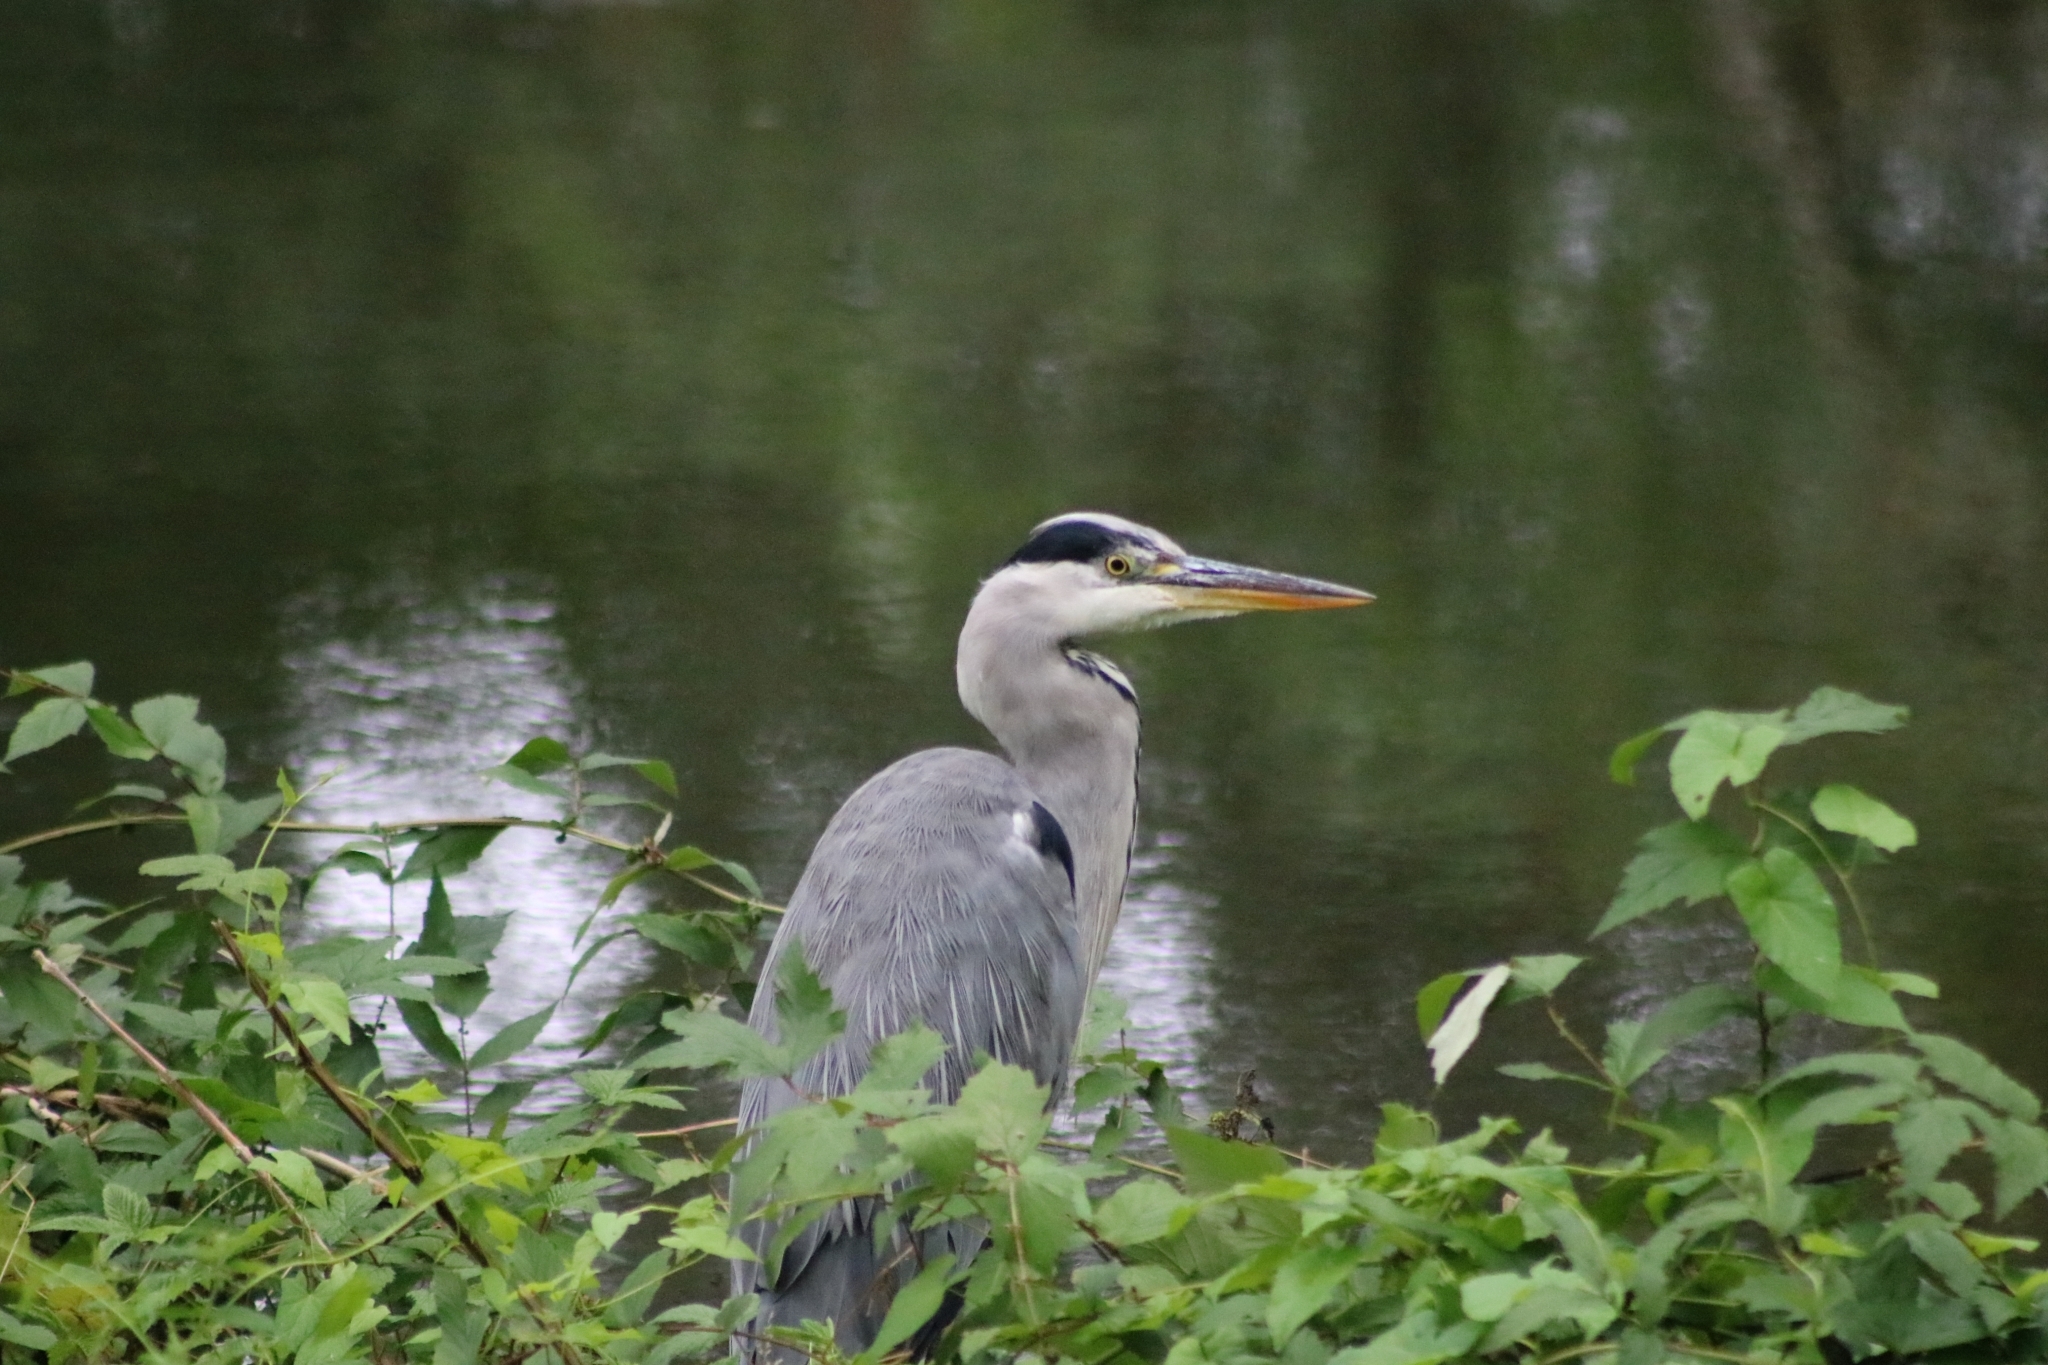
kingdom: Animalia
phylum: Chordata
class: Aves
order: Pelecaniformes
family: Ardeidae
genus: Ardea
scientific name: Ardea cinerea
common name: Grey heron
